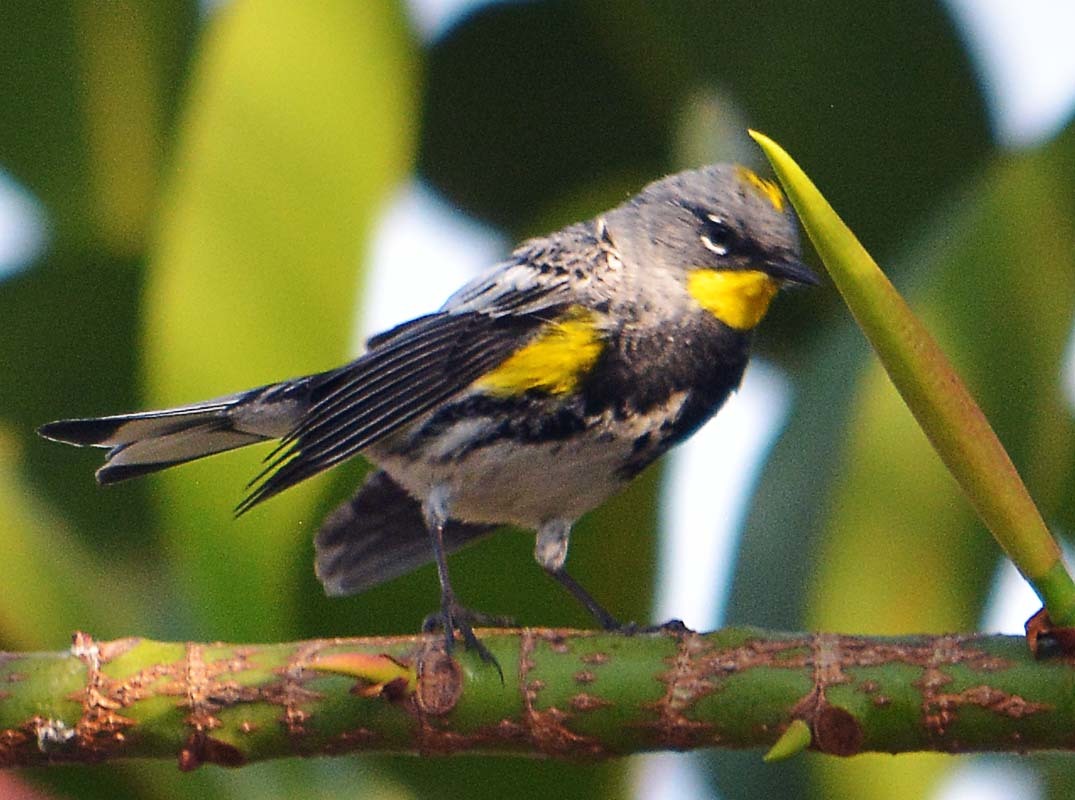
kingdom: Animalia
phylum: Chordata
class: Aves
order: Passeriformes
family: Parulidae
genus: Setophaga
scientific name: Setophaga auduboni
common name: Audubon's warbler
